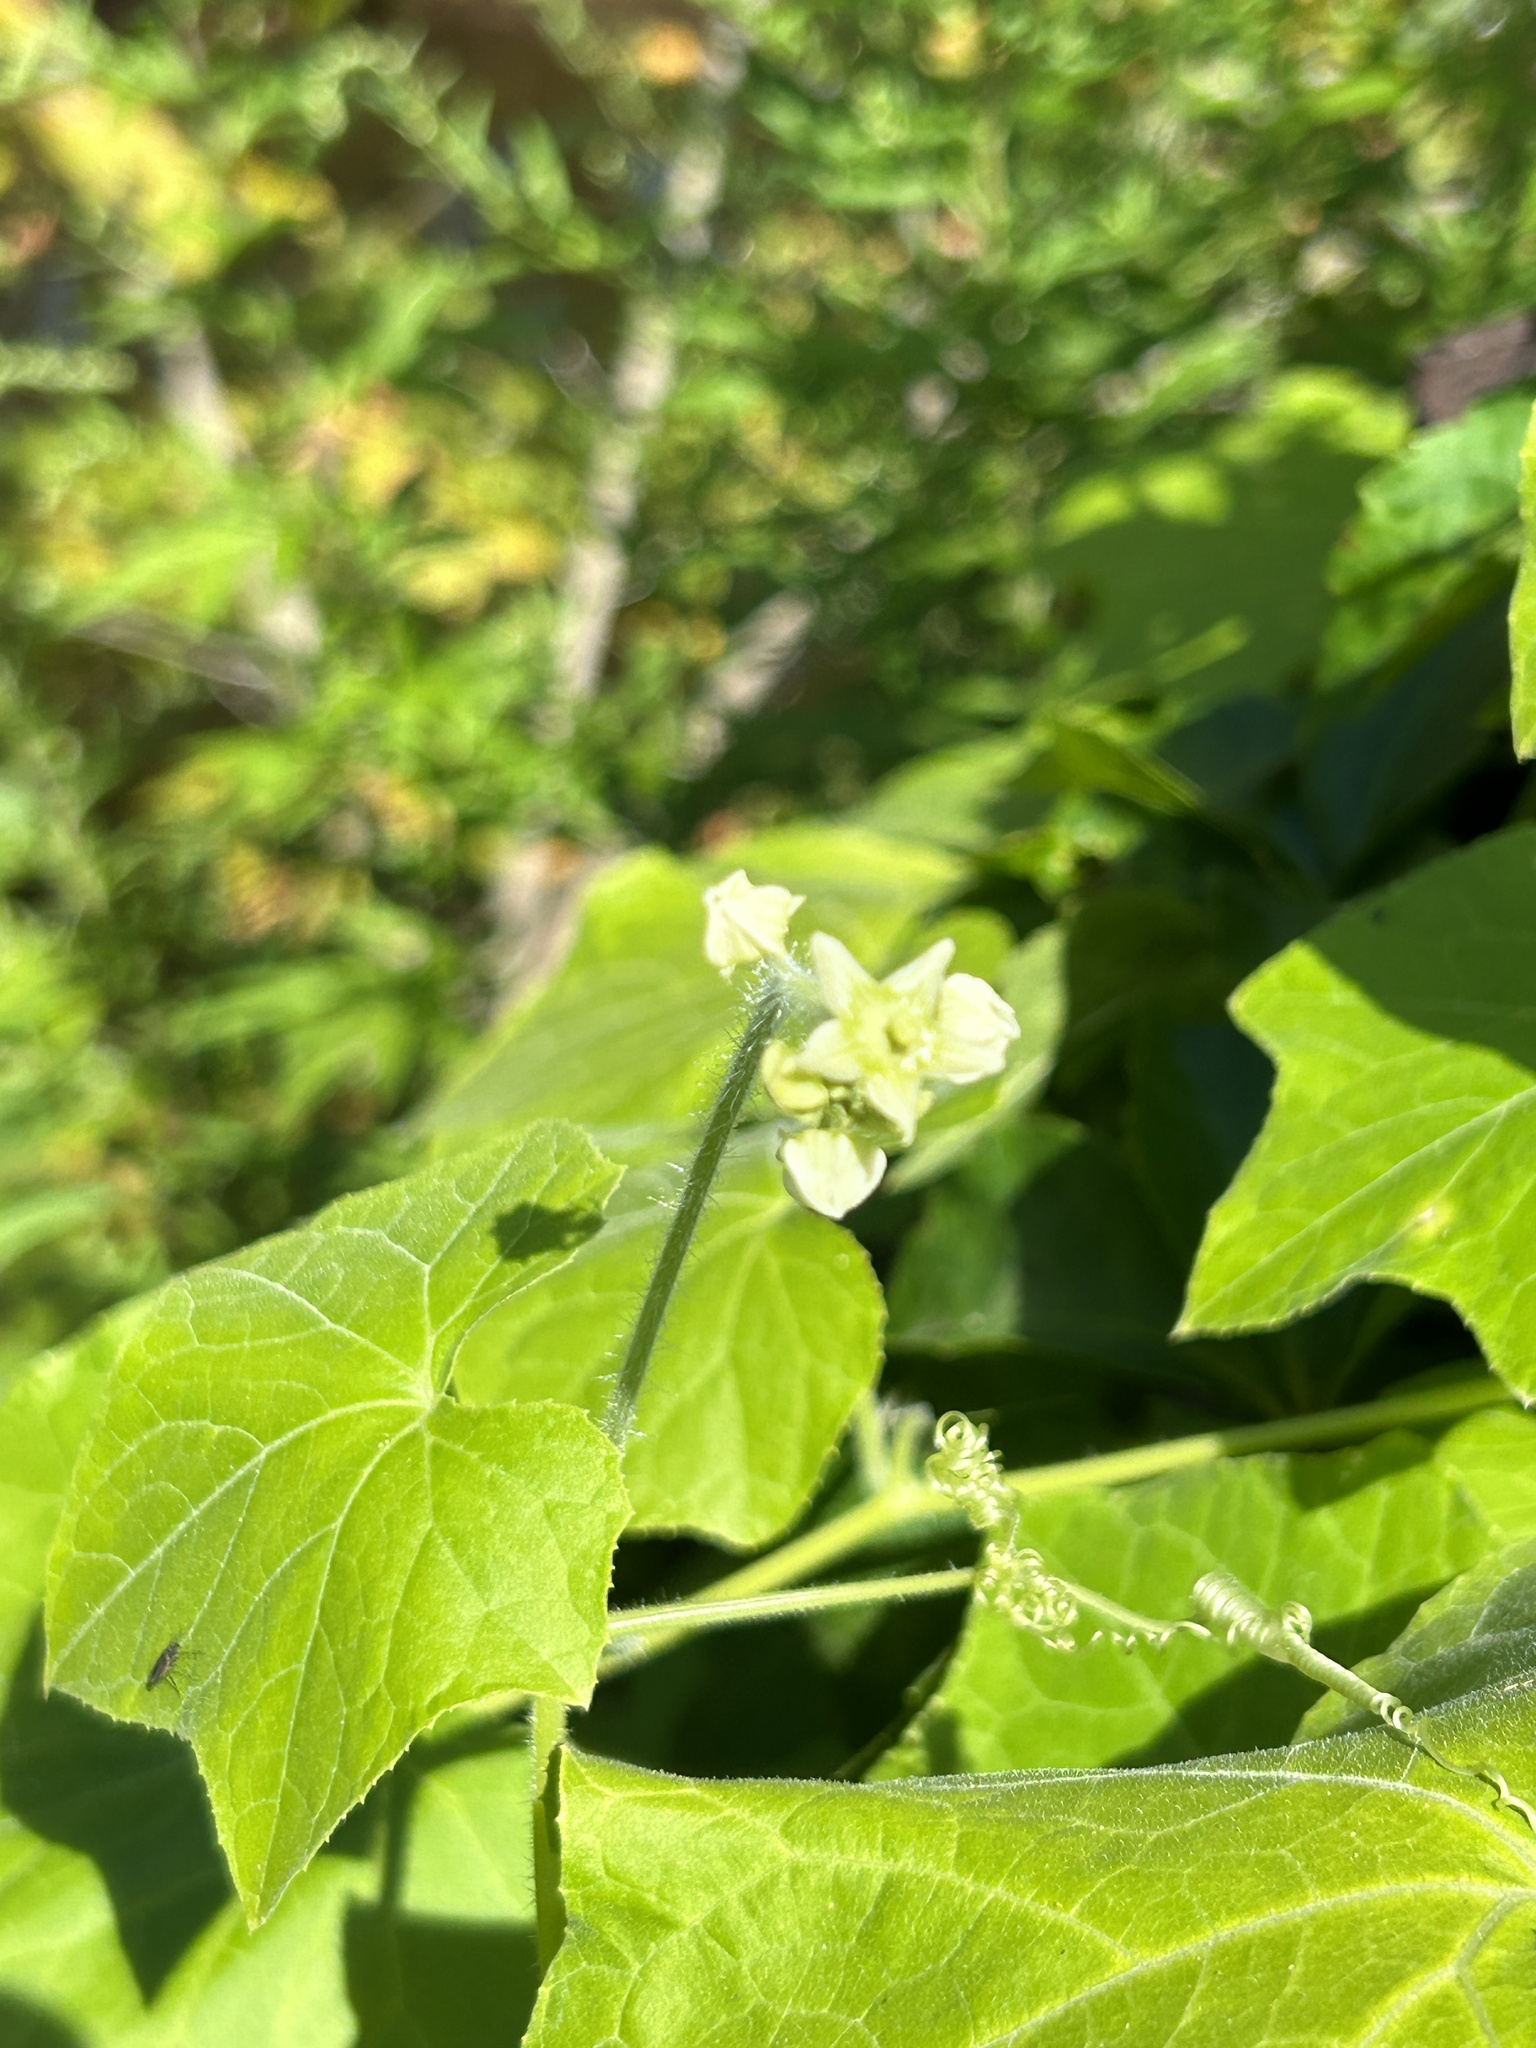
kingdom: Plantae
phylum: Tracheophyta
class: Magnoliopsida
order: Cucurbitales
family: Cucurbitaceae
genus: Sicyos
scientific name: Sicyos angulatus
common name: Angled burr cucumber
